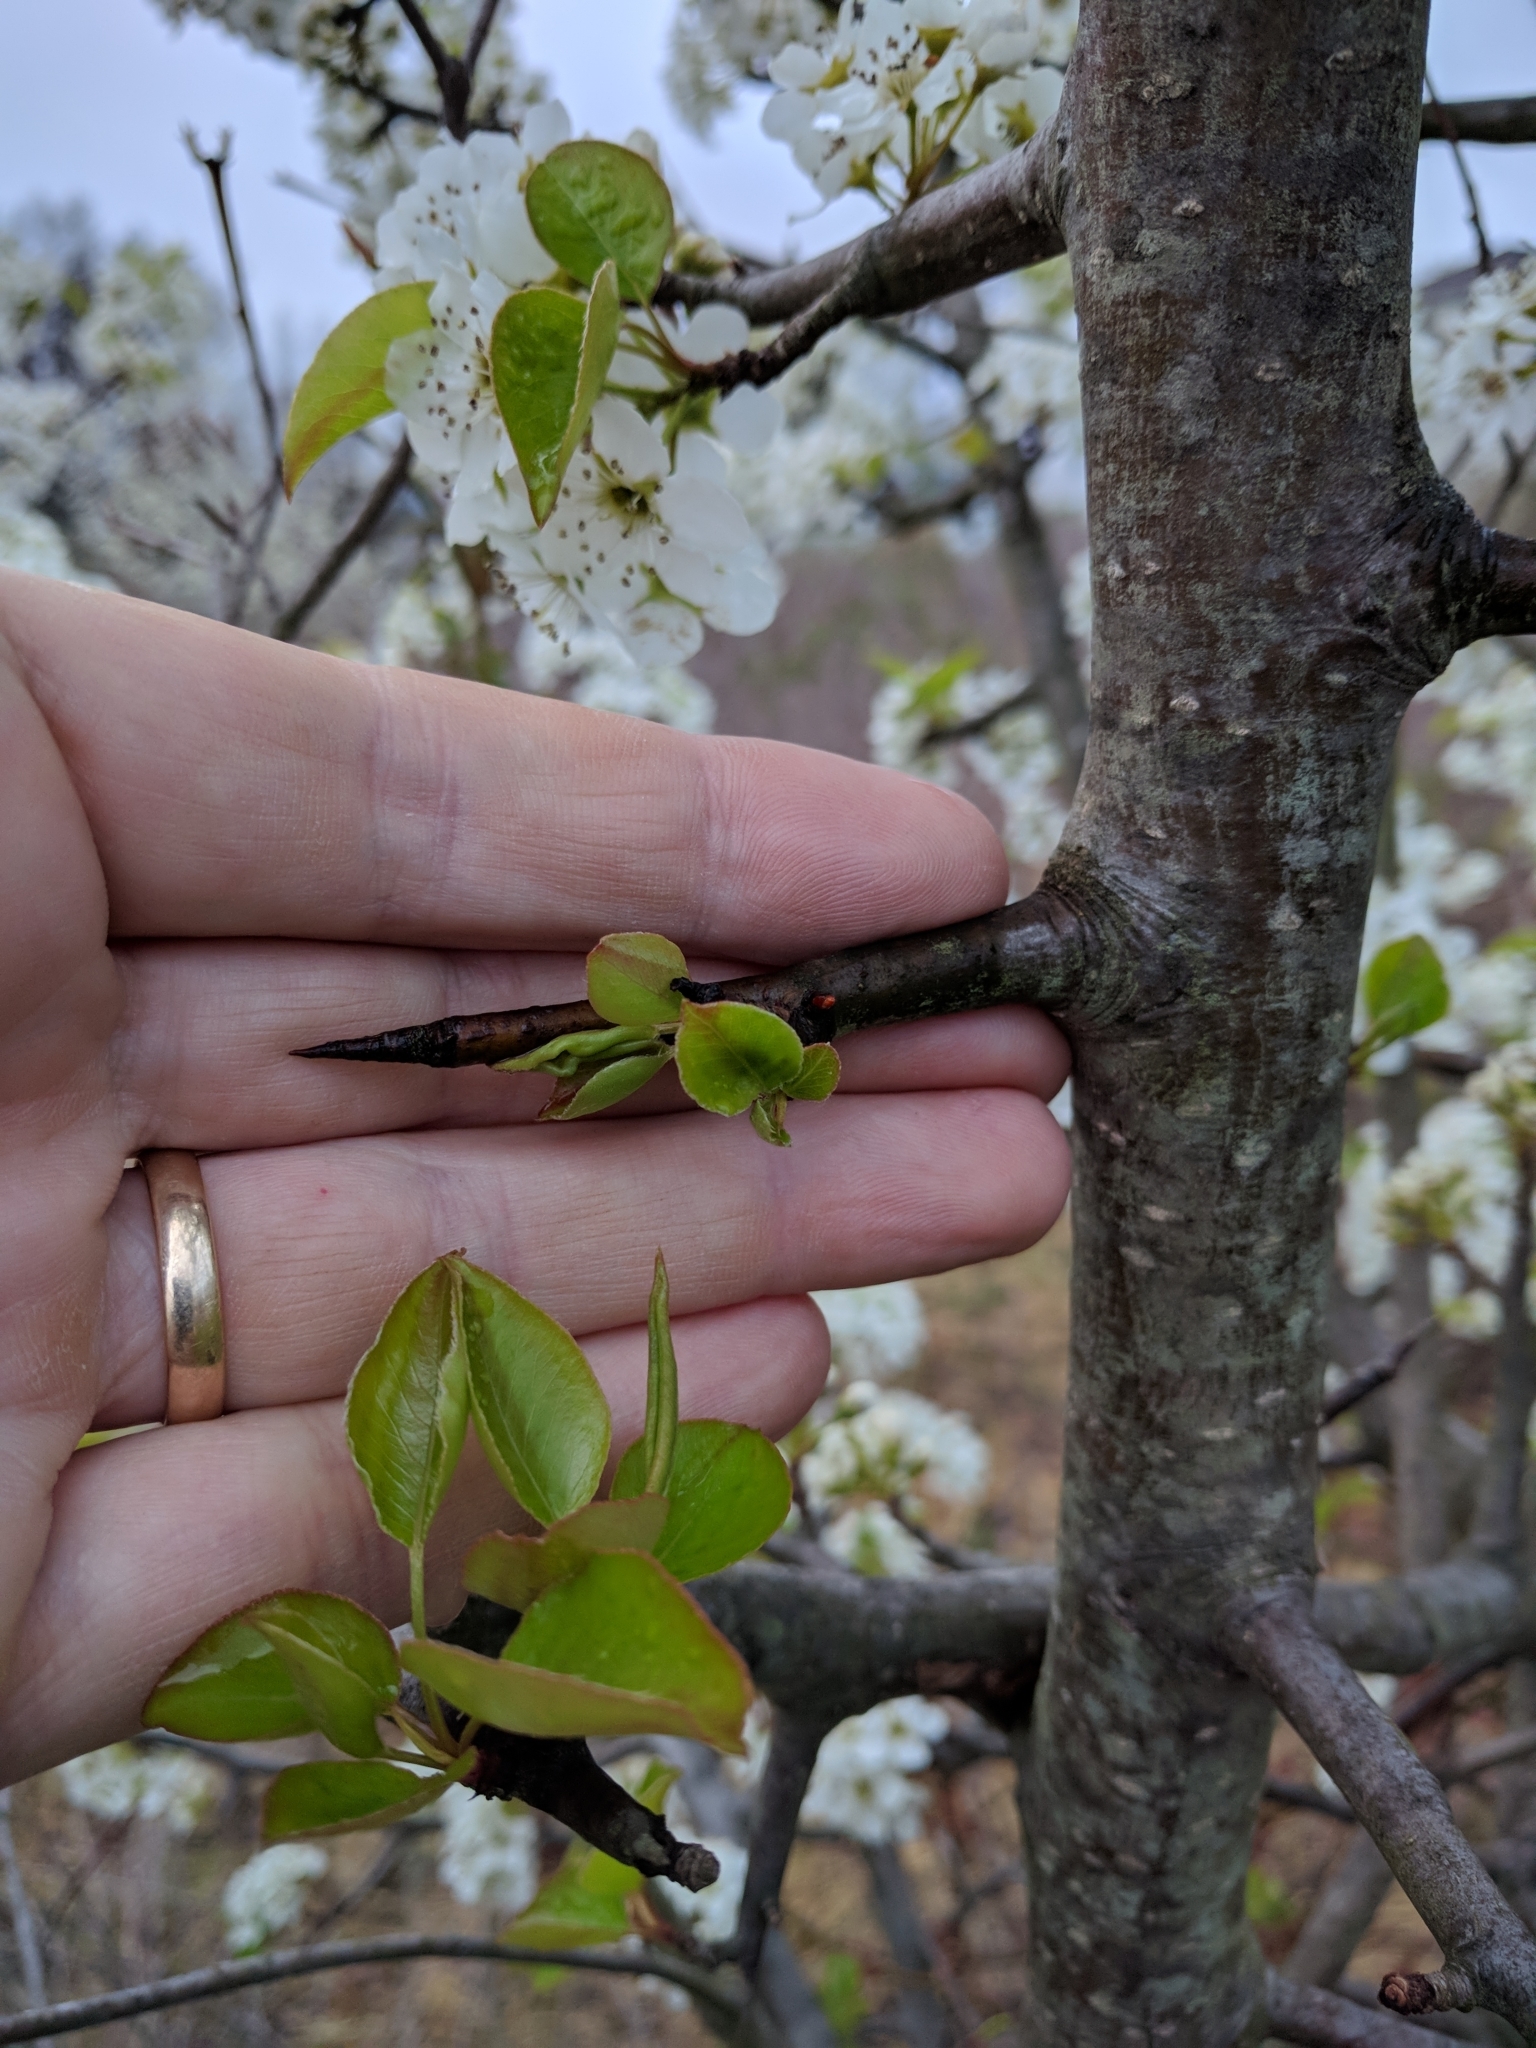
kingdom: Plantae
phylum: Tracheophyta
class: Magnoliopsida
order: Rosales
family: Rosaceae
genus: Pyrus
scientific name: Pyrus calleryana
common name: Callery pear
